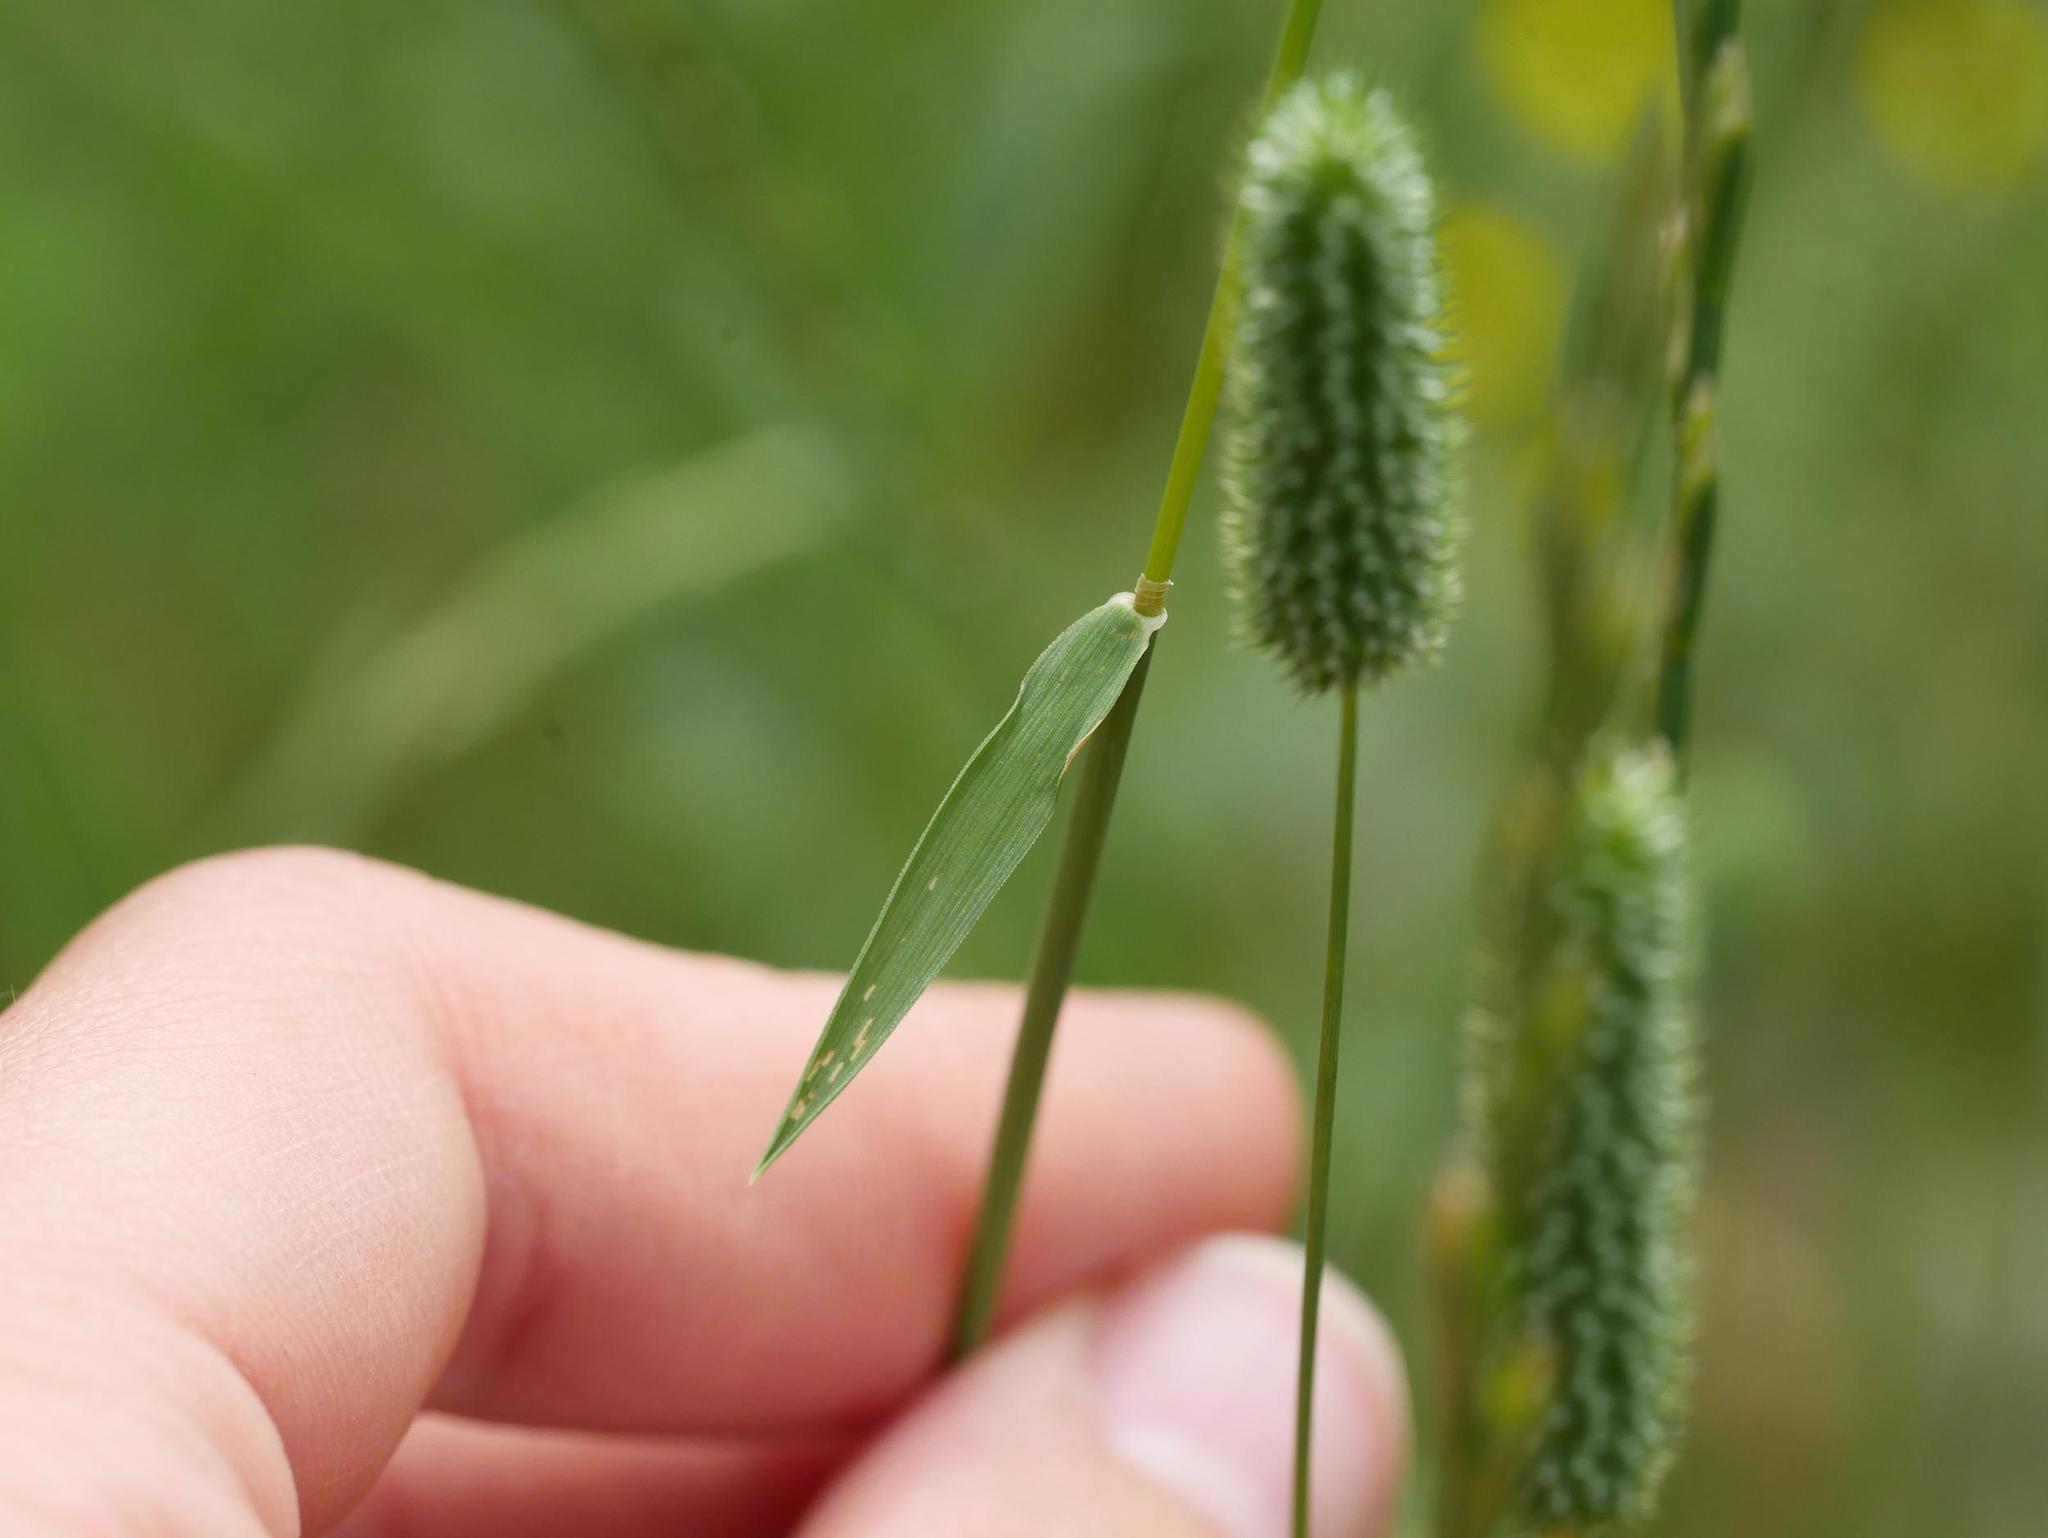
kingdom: Plantae
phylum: Tracheophyta
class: Liliopsida
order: Poales
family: Poaceae
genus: Phleum
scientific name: Phleum pratense
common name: Timothy grass
